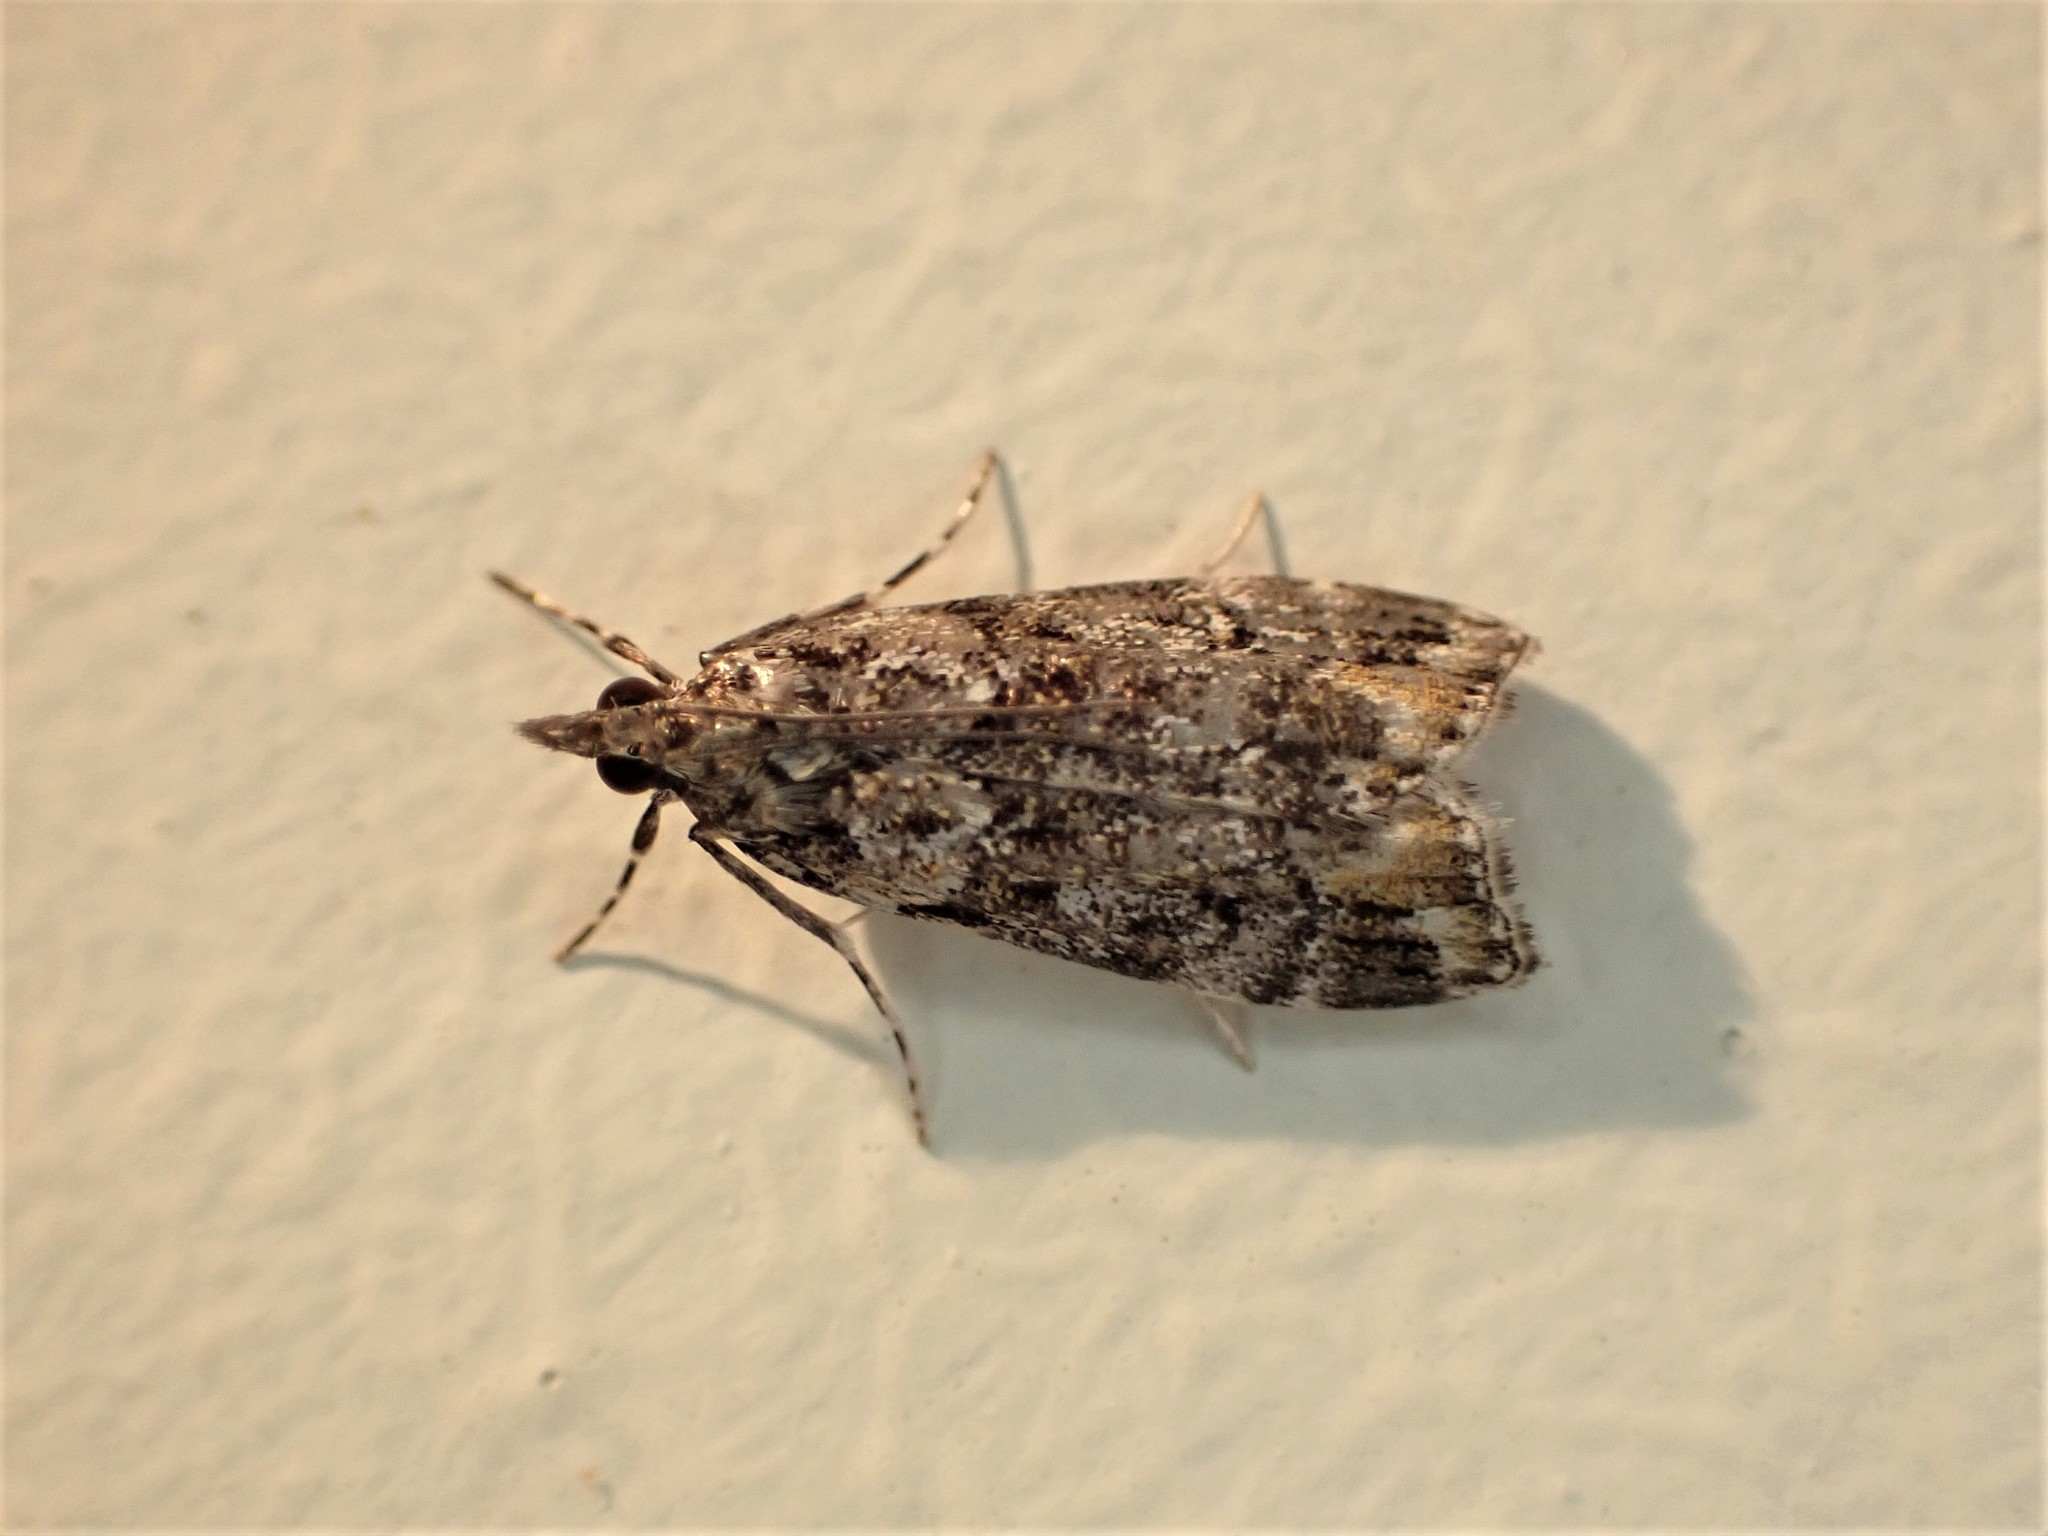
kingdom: Animalia
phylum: Arthropoda
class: Insecta
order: Lepidoptera
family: Crambidae
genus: Eudonia
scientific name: Eudonia minualis
